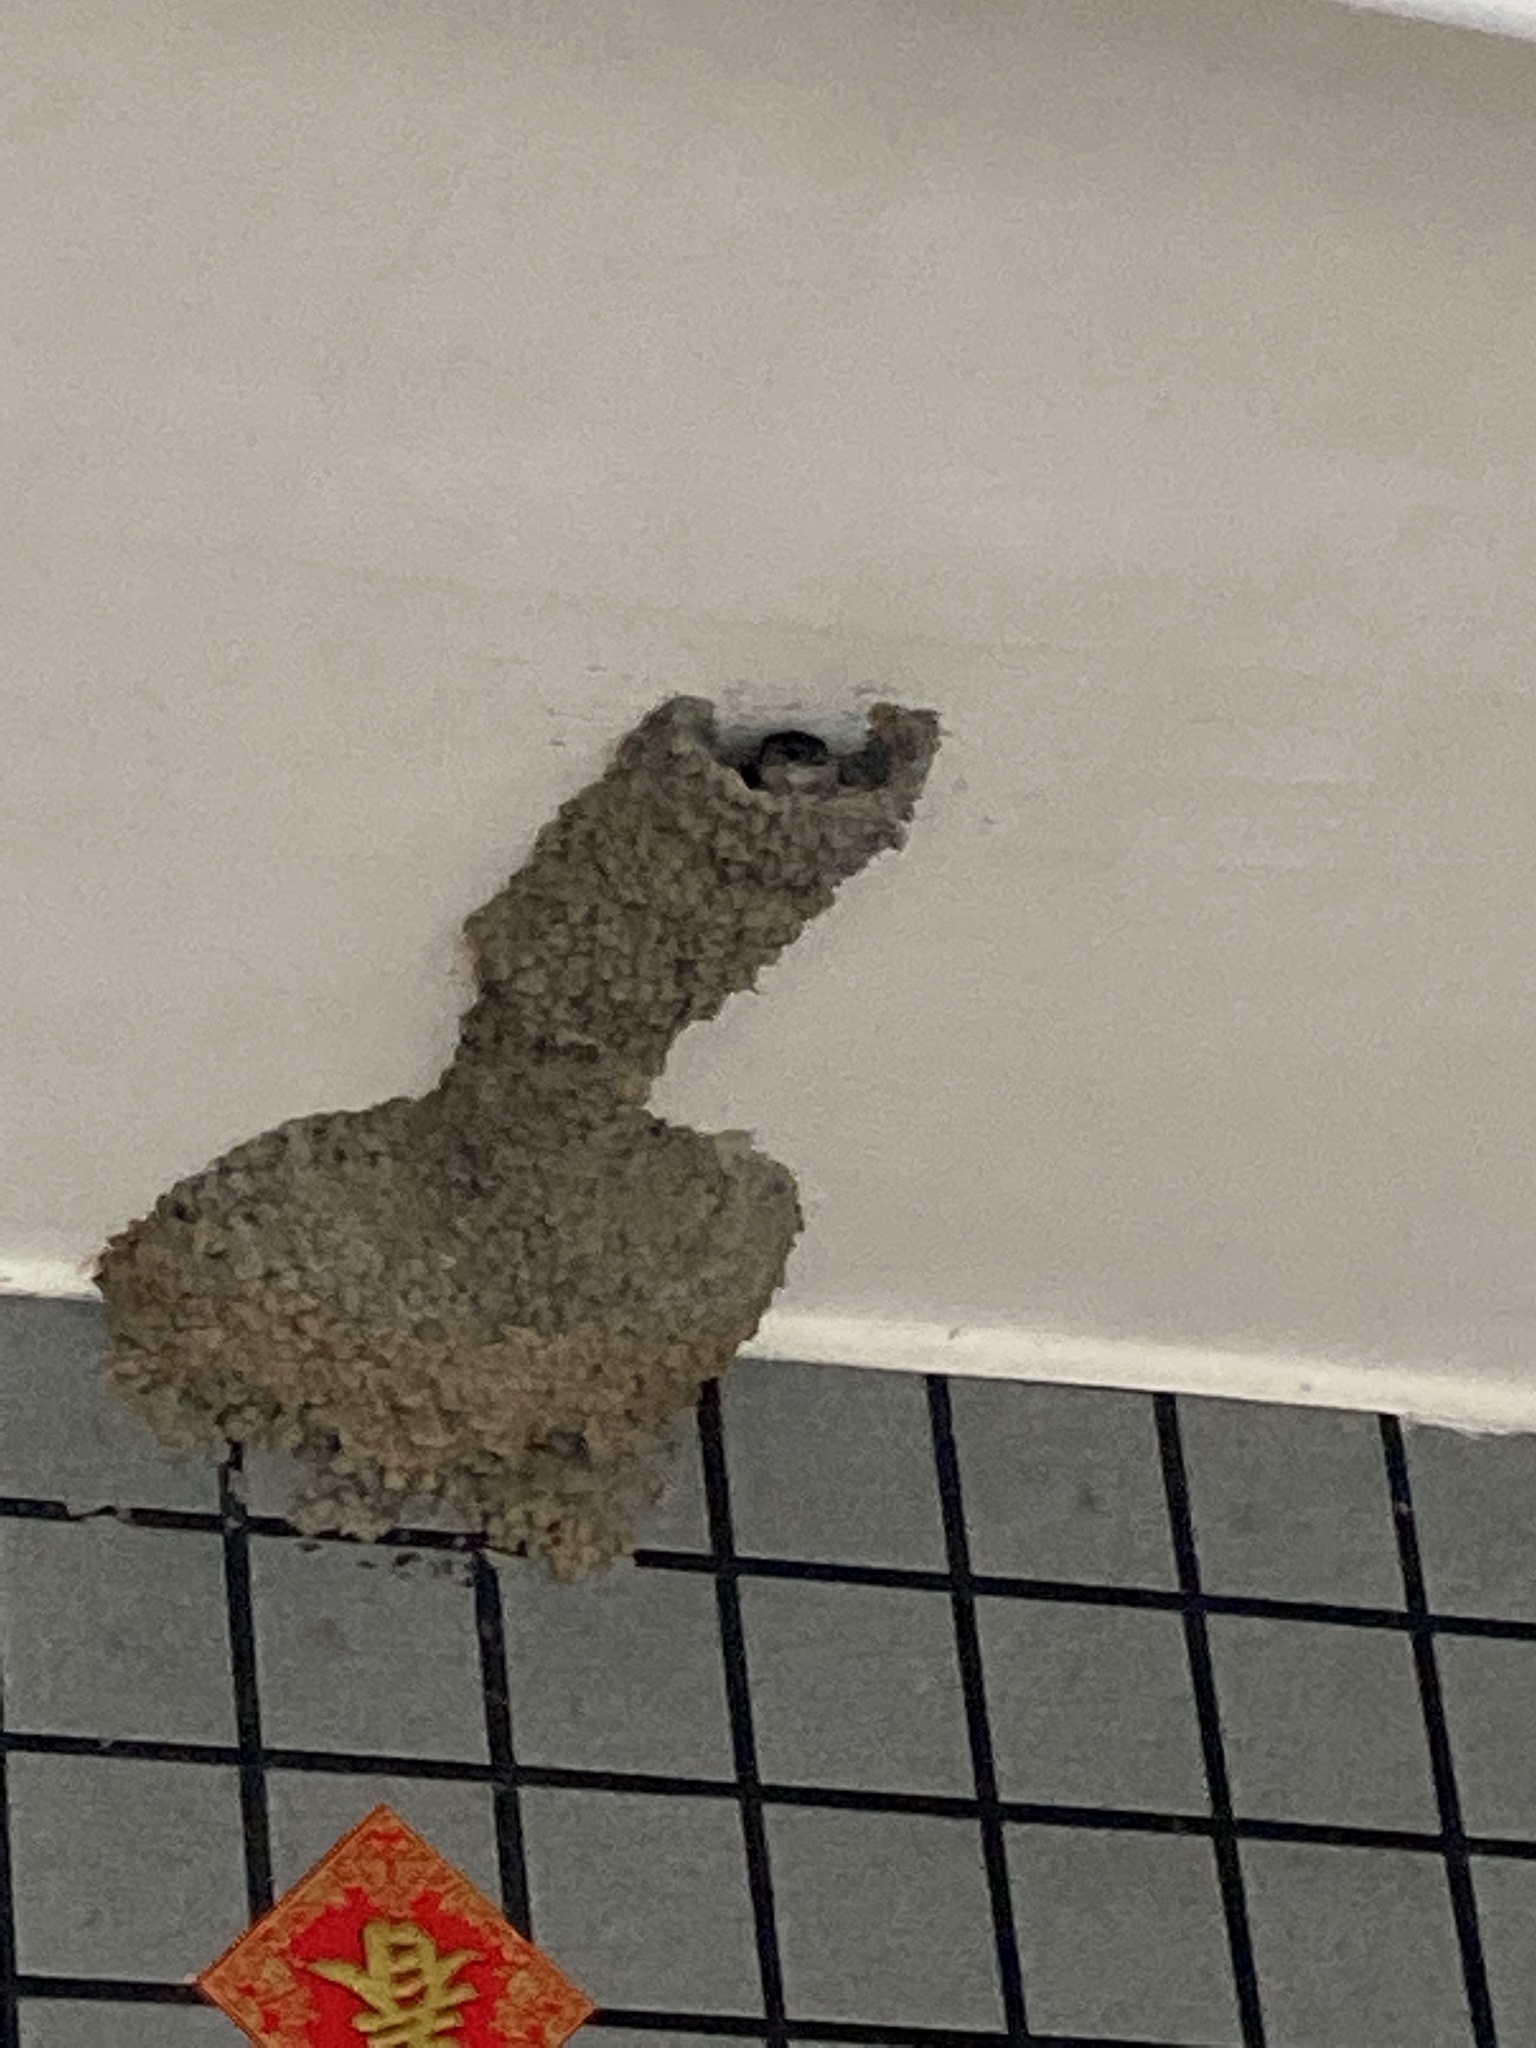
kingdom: Animalia
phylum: Chordata
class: Aves
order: Passeriformes
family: Hirundinidae
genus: Cecropis
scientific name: Cecropis striolata
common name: Striated swallow
